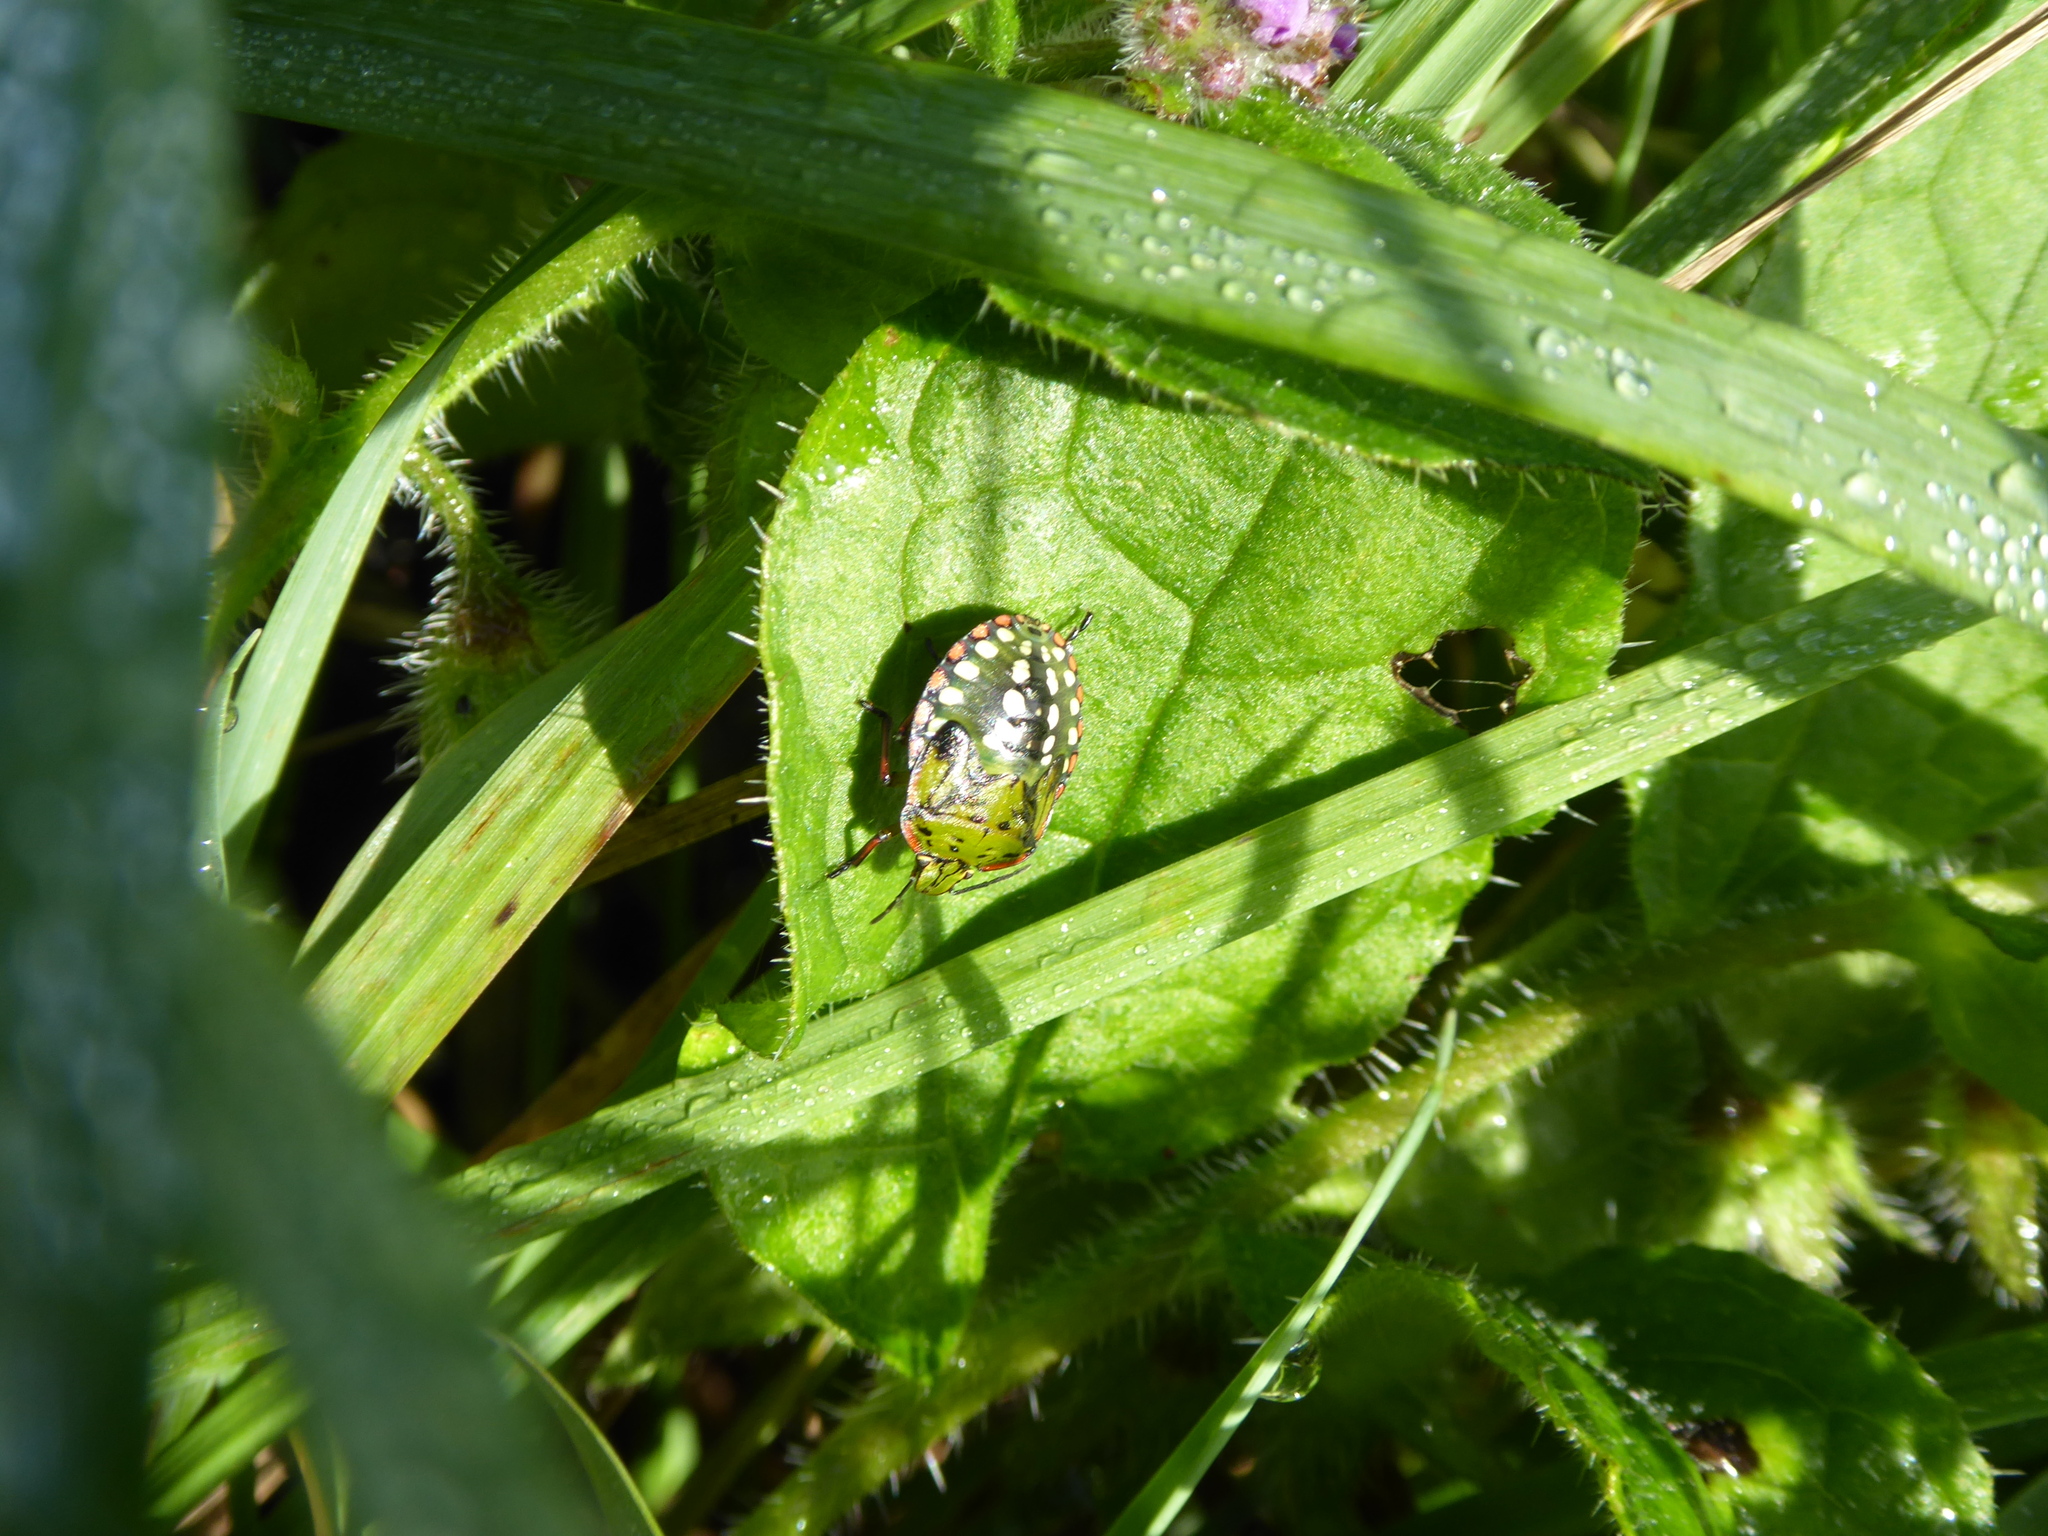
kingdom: Animalia
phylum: Arthropoda
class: Insecta
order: Hemiptera
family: Pentatomidae
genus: Nezara
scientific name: Nezara viridula
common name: Southern green stink bug
